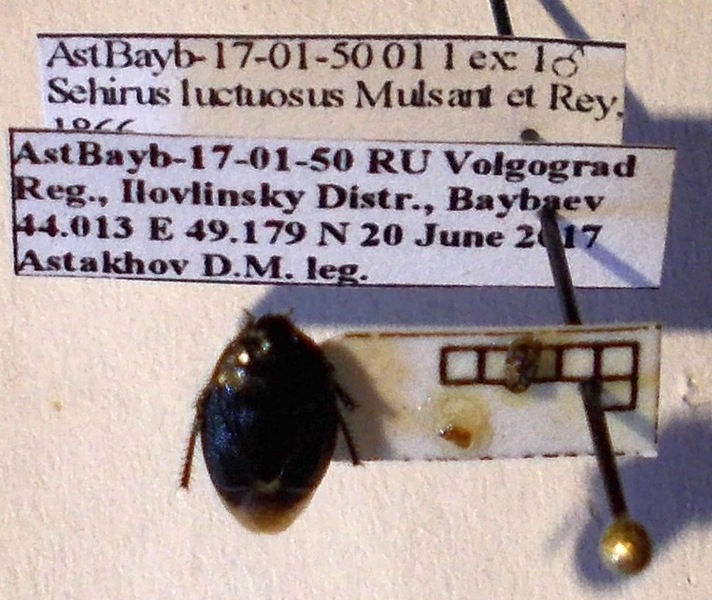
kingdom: Animalia
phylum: Arthropoda
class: Insecta
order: Hemiptera
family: Cydnidae
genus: Sehirus
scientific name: Sehirus luctuosus
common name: Forget-me-not shieldbug
